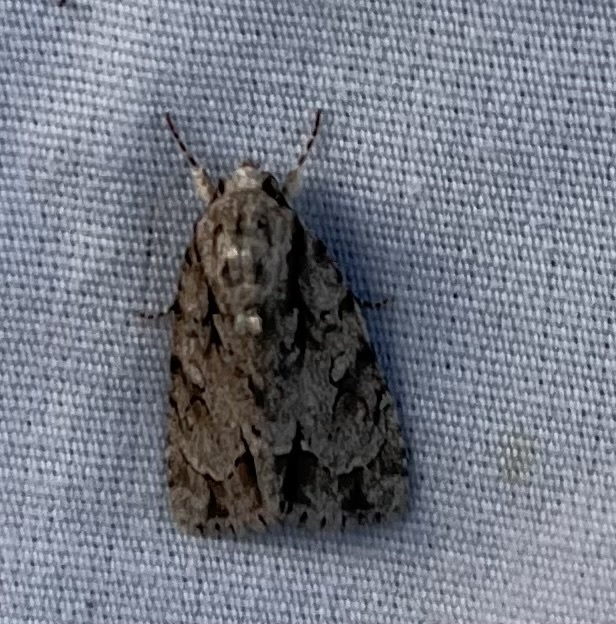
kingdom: Animalia
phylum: Arthropoda
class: Insecta
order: Lepidoptera
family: Noctuidae
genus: Acronicta
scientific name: Acronicta vinnula
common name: Delightful dagger
